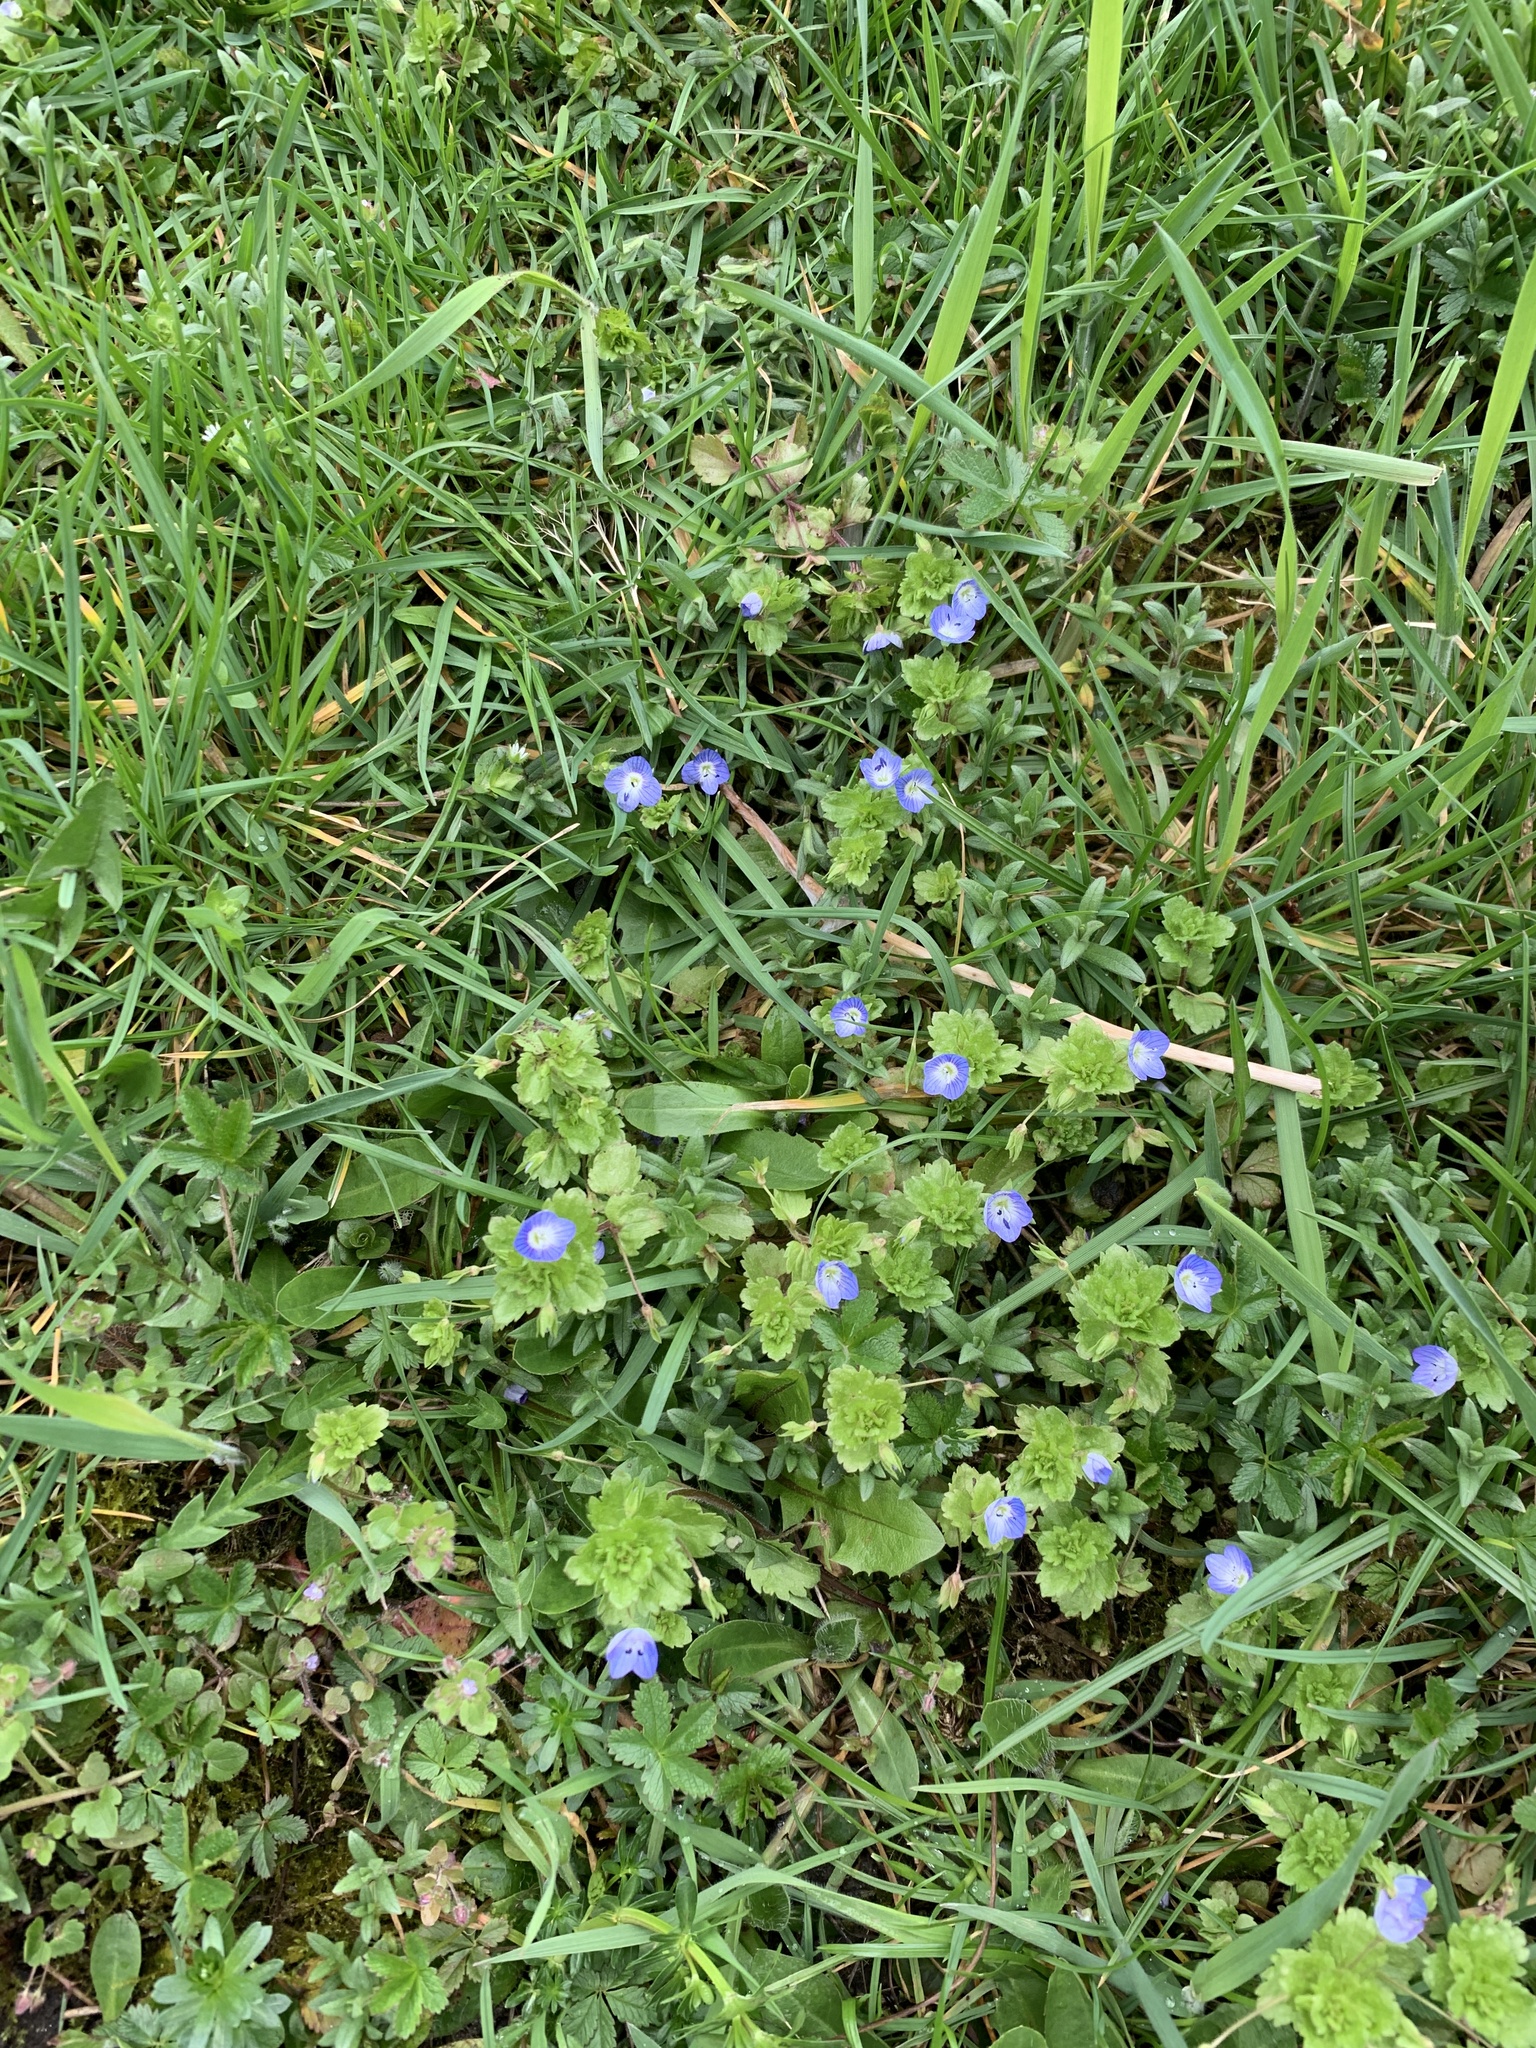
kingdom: Plantae
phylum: Tracheophyta
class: Magnoliopsida
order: Lamiales
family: Plantaginaceae
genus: Veronica
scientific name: Veronica persica
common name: Common field-speedwell
